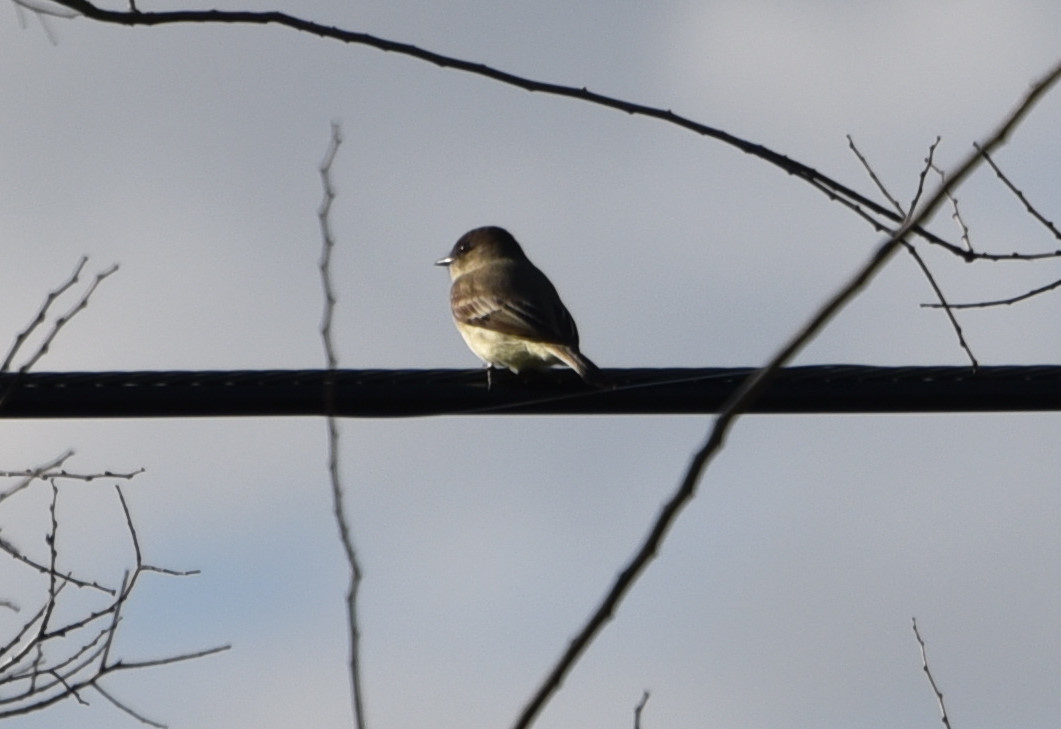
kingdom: Animalia
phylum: Chordata
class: Aves
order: Passeriformes
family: Tyrannidae
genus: Sayornis
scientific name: Sayornis phoebe
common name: Eastern phoebe
